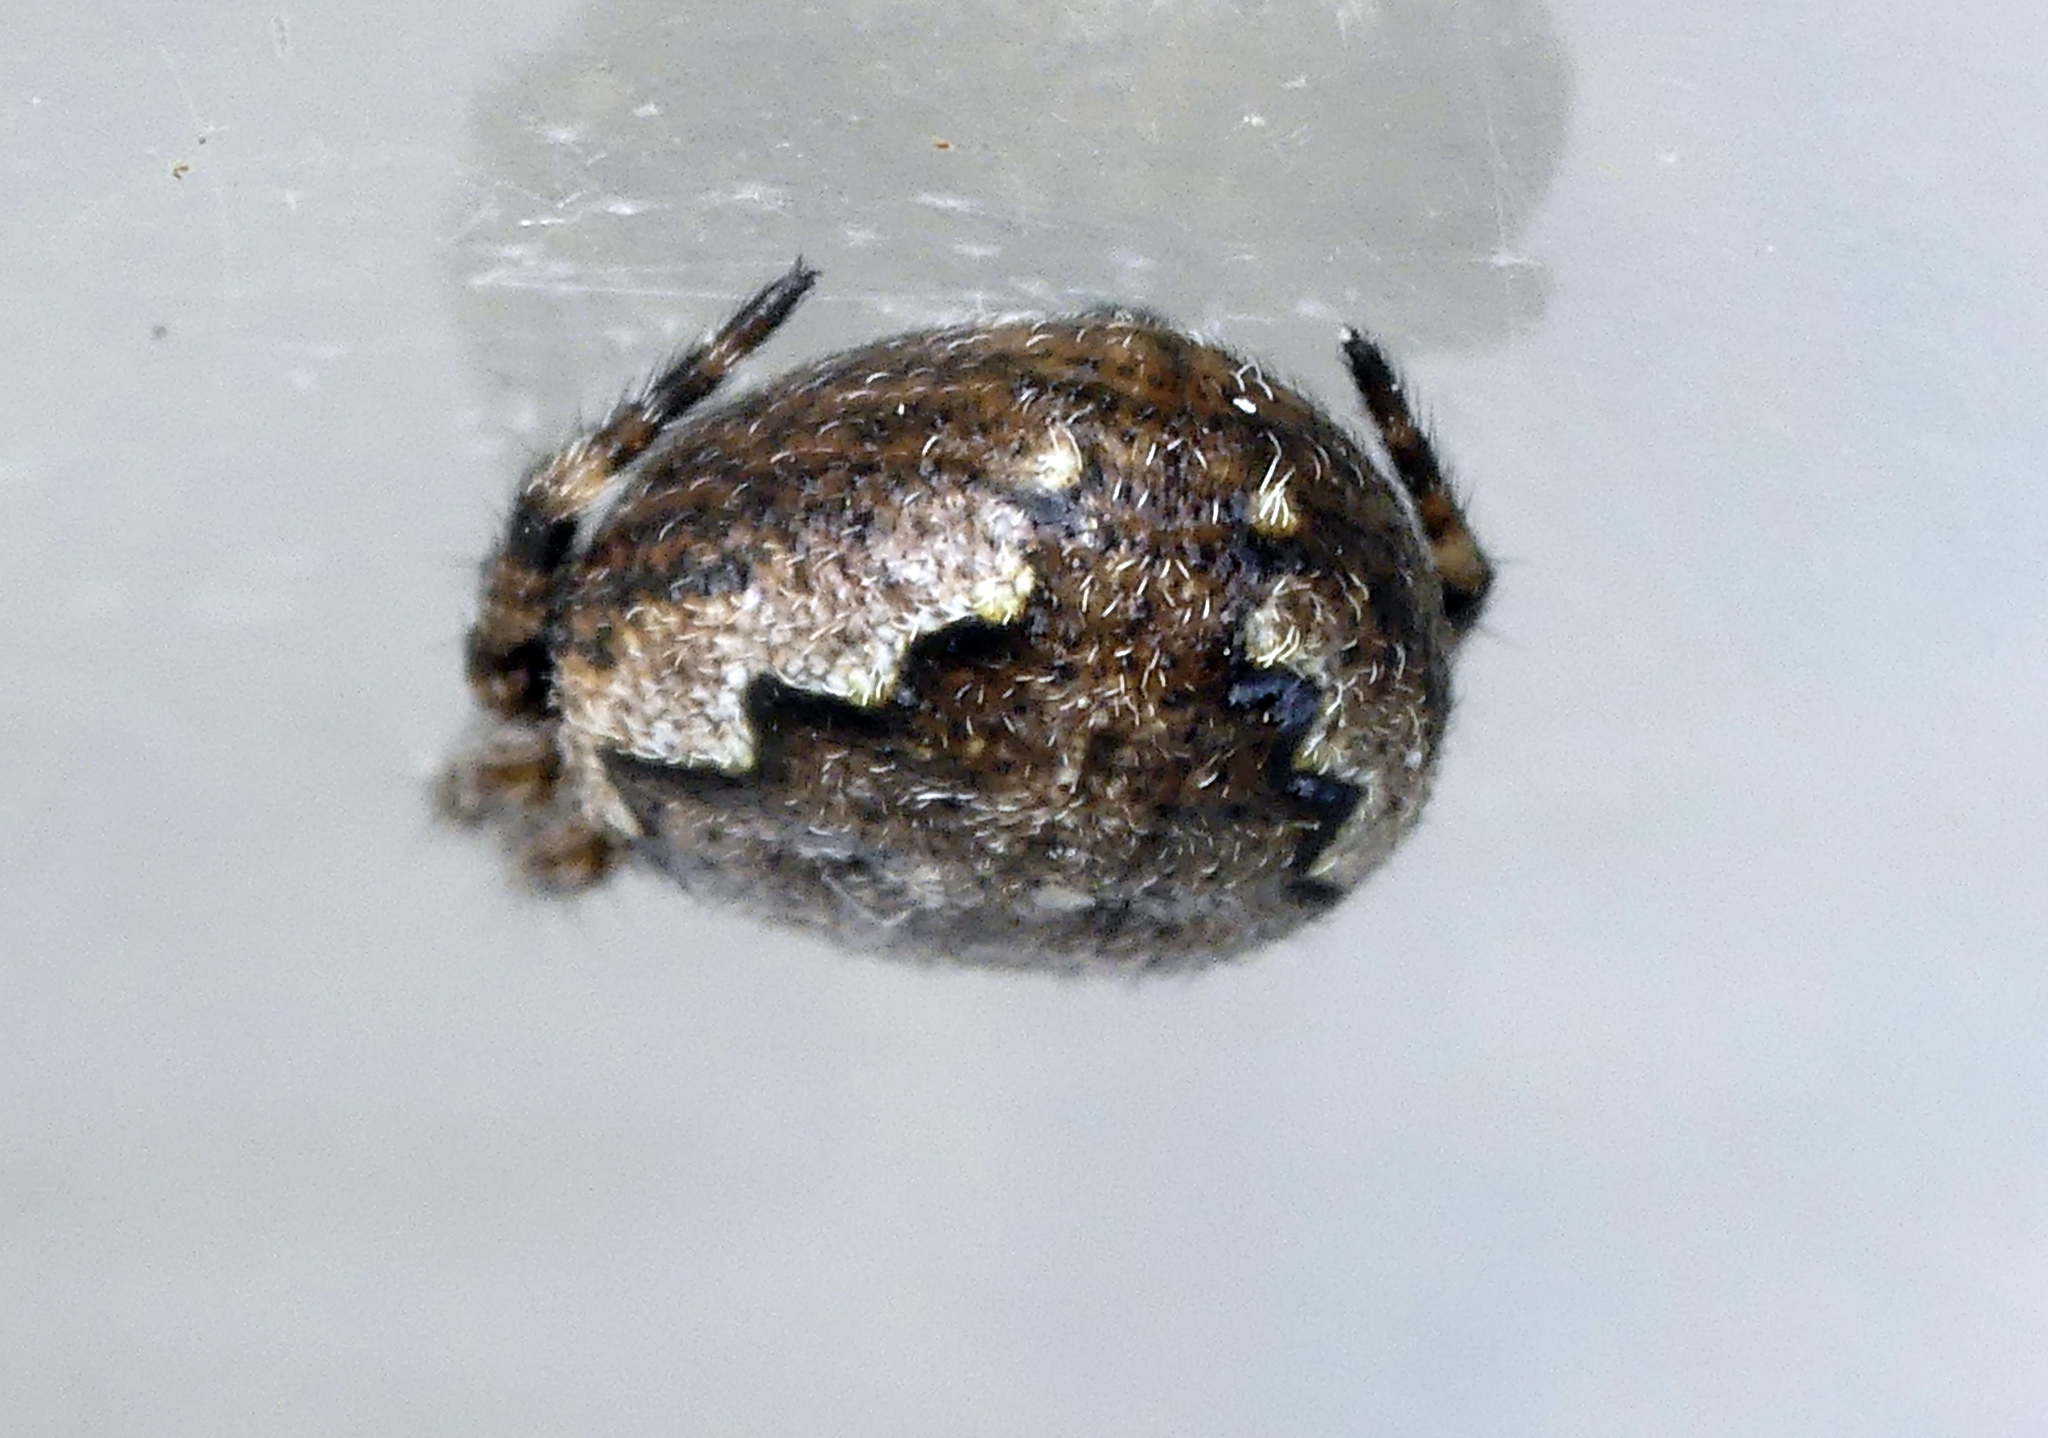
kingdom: Animalia
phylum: Arthropoda
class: Arachnida
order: Araneae
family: Araneidae
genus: Nuctenea
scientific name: Nuctenea umbratica
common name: Toad spider
